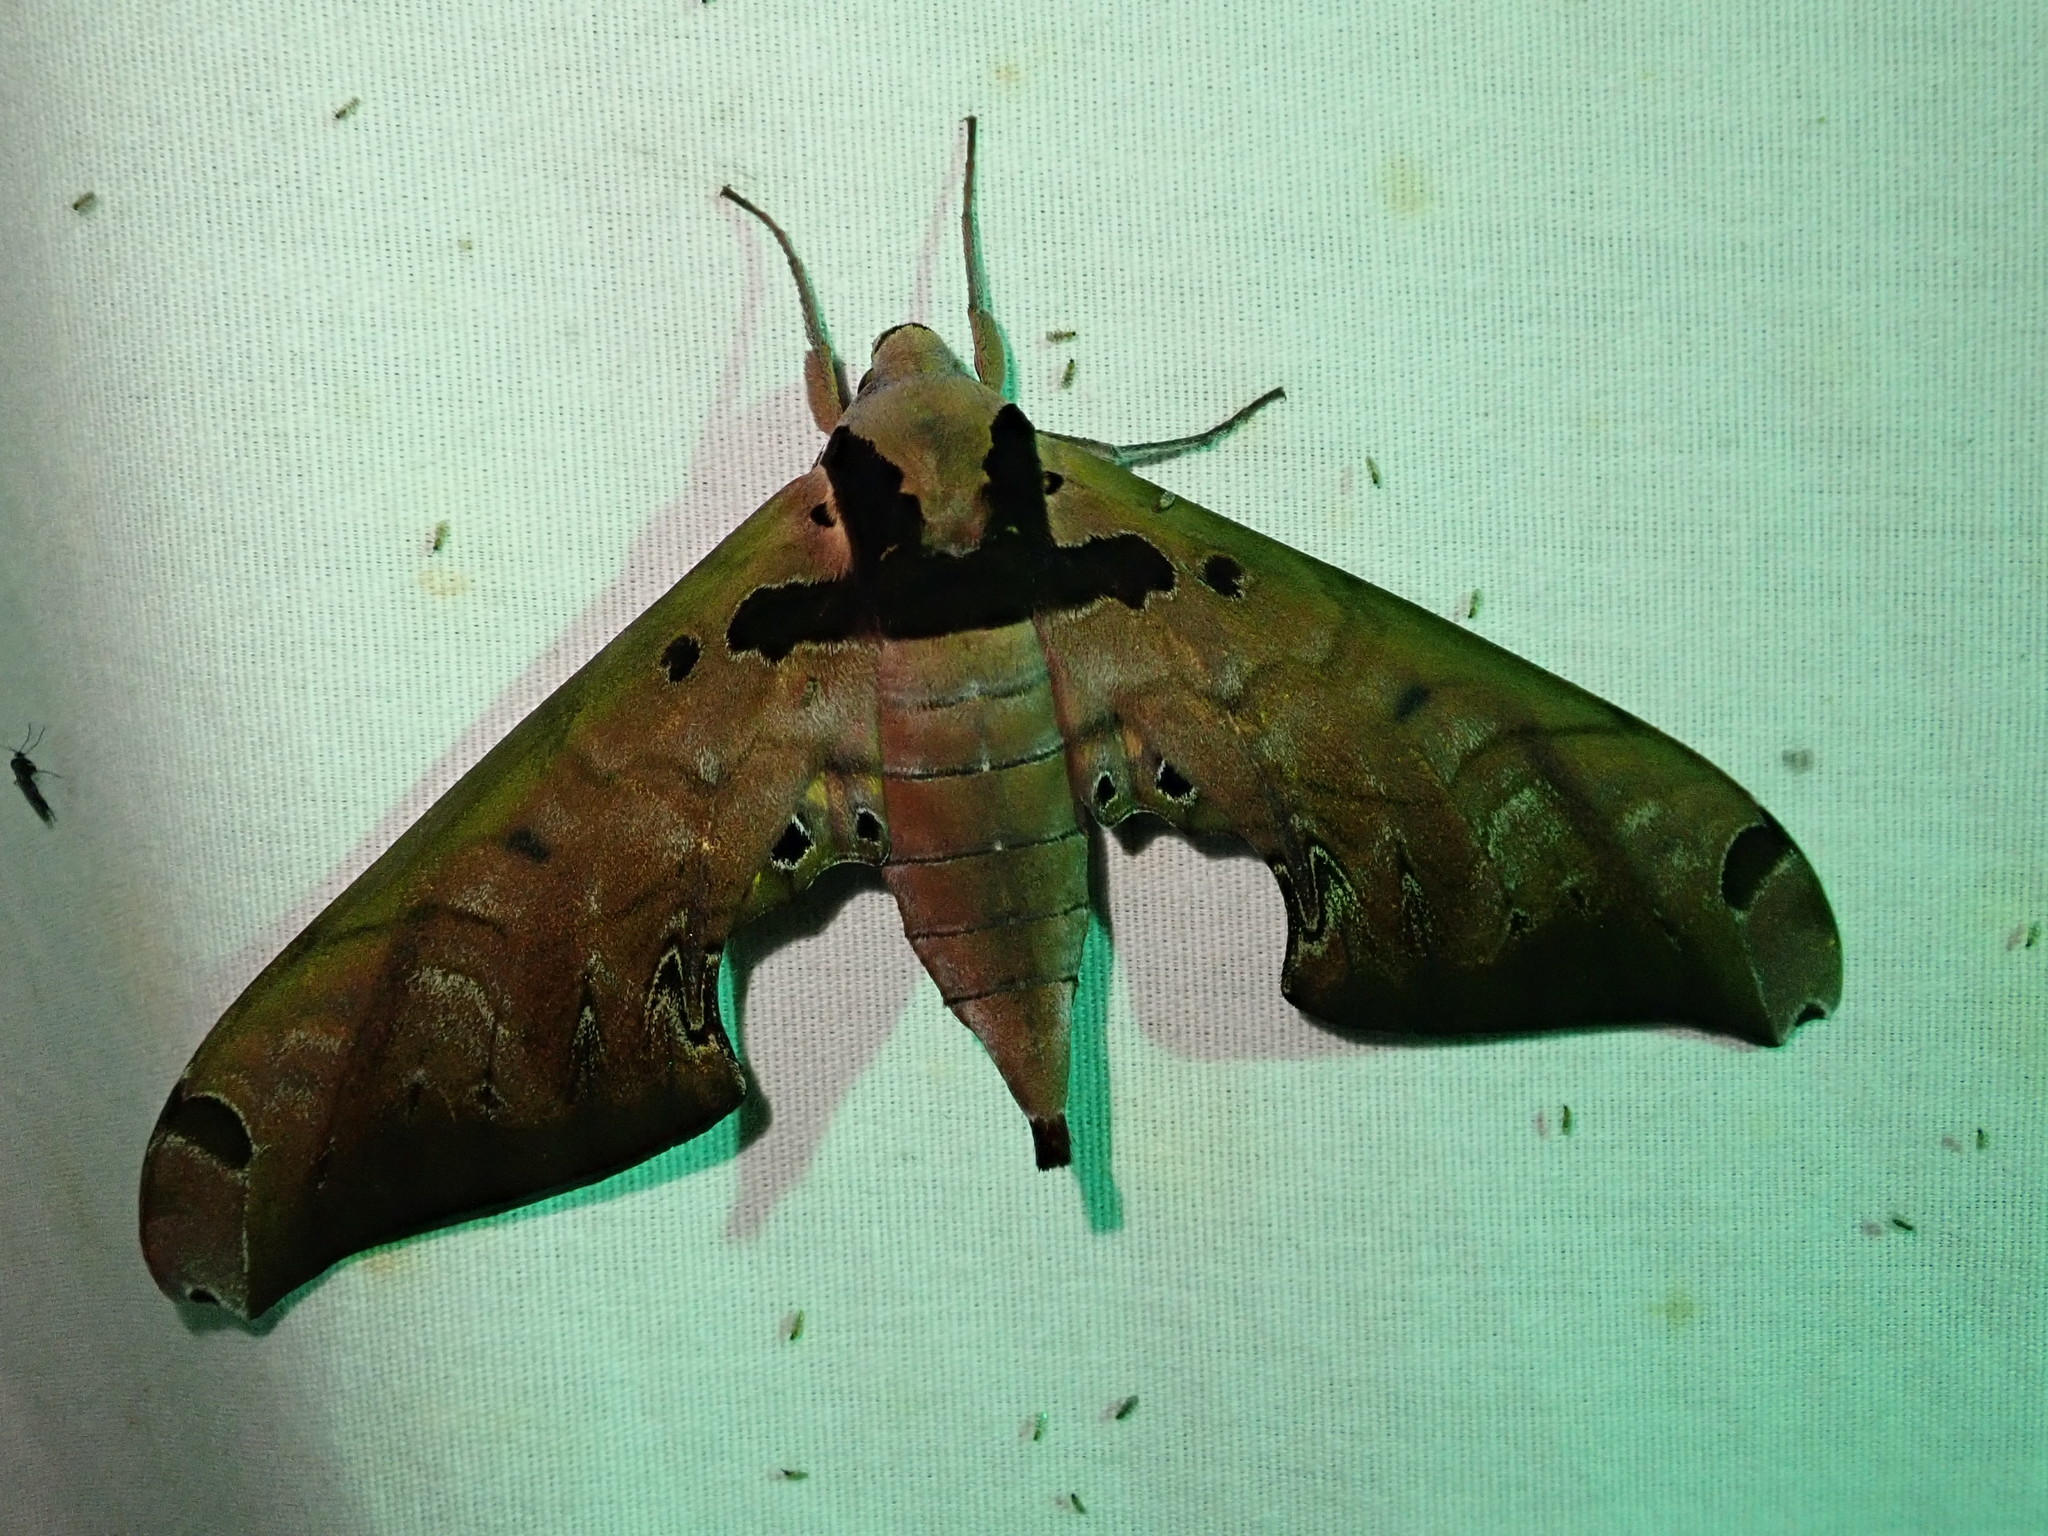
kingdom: Animalia
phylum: Arthropoda
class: Insecta
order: Lepidoptera
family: Sphingidae
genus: Adhemarius
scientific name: Adhemarius sexoculata
